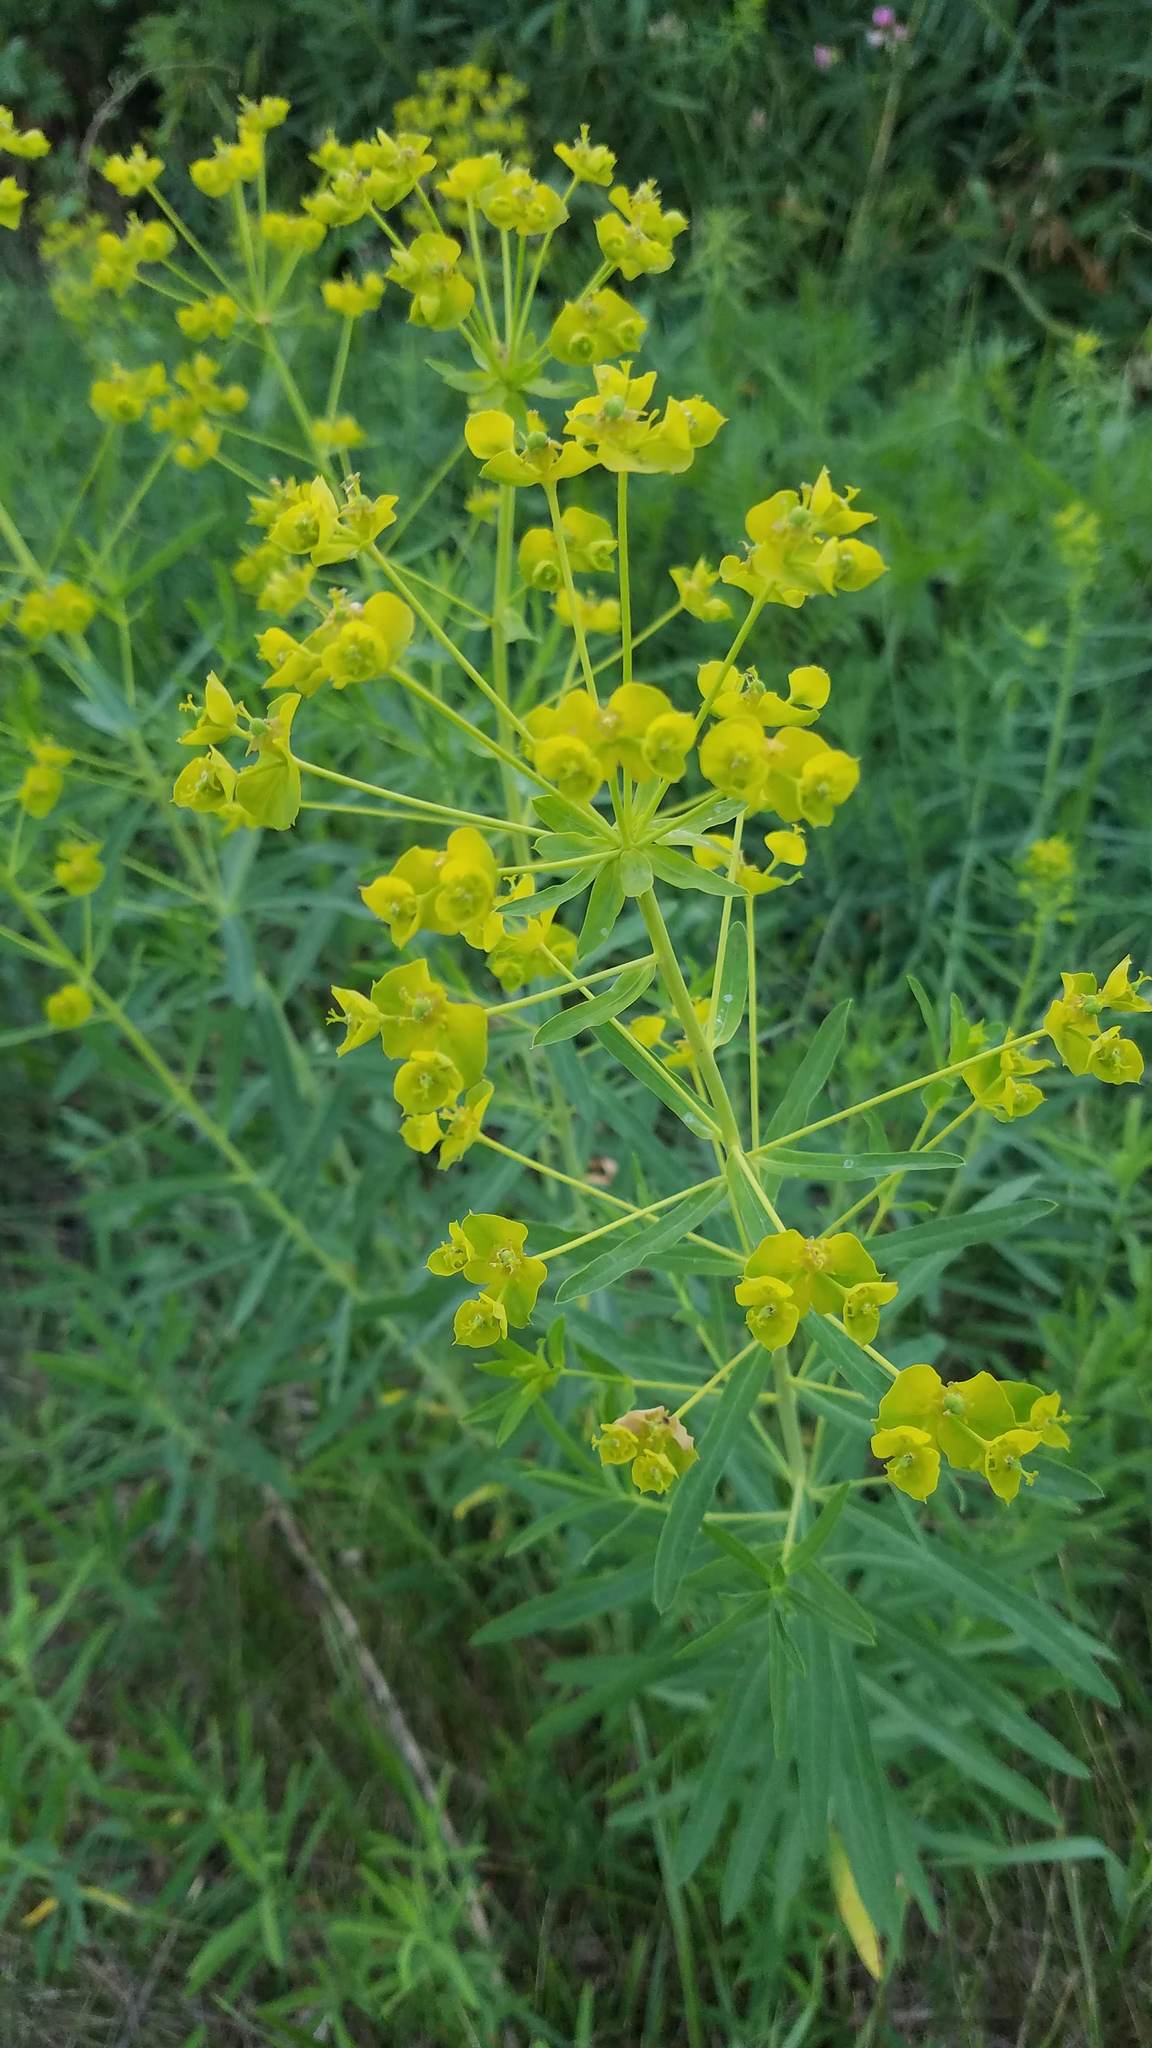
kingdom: Plantae
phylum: Tracheophyta
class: Magnoliopsida
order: Malpighiales
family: Euphorbiaceae
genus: Euphorbia
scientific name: Euphorbia virgata
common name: Leafy spurge
